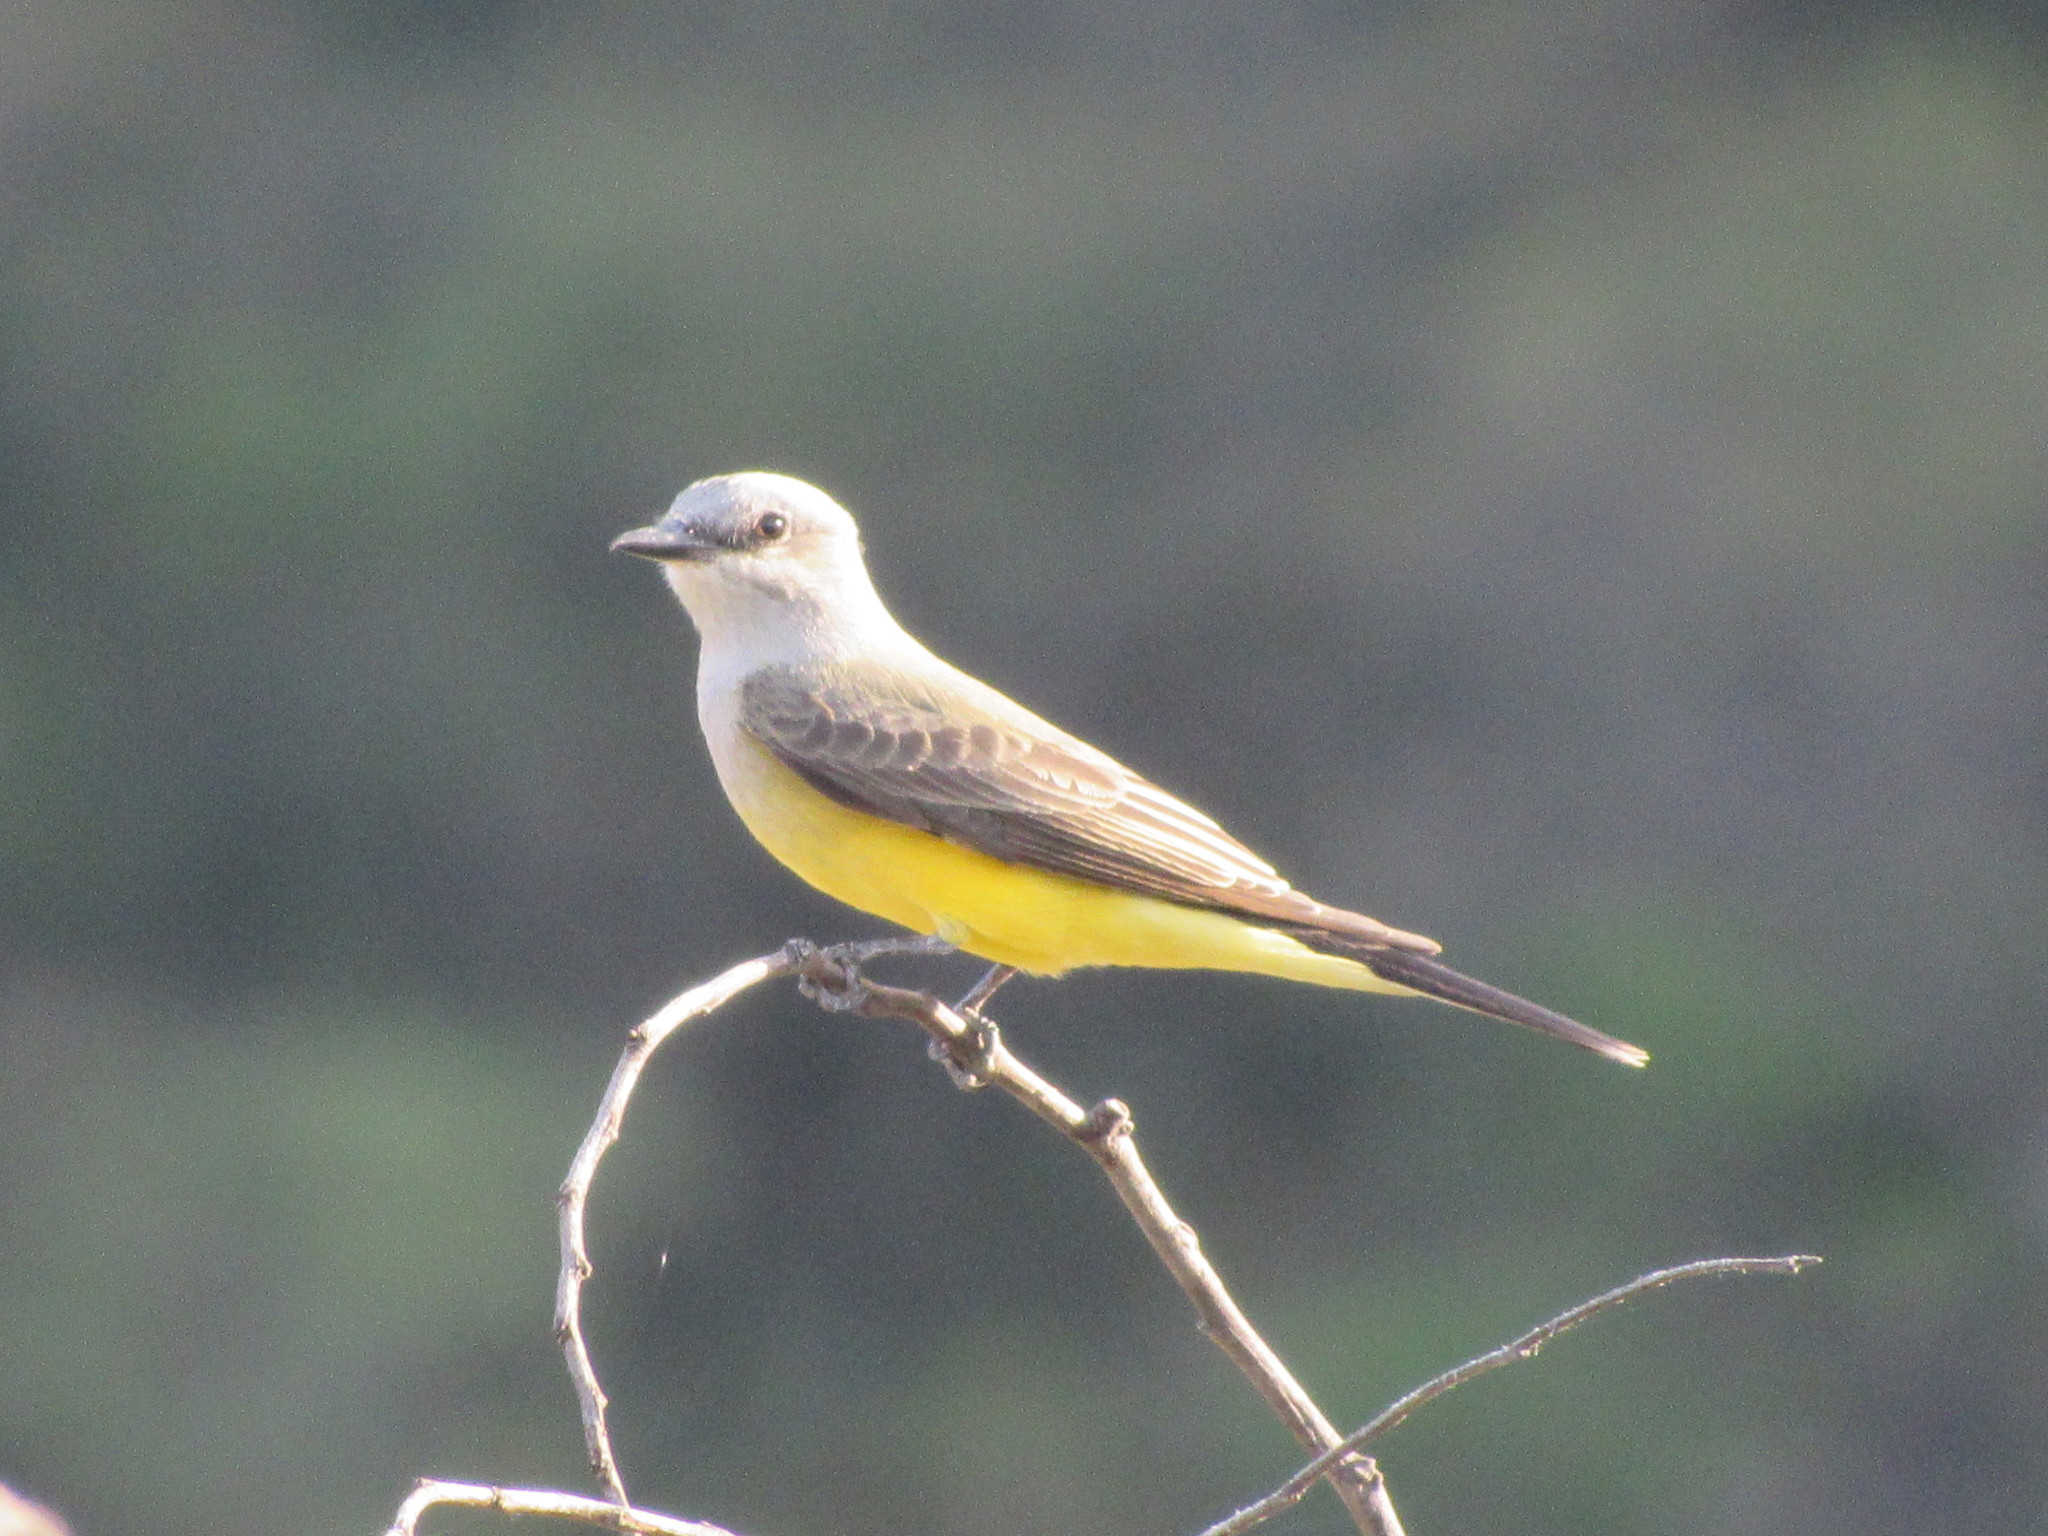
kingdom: Animalia
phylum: Chordata
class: Aves
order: Passeriformes
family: Tyrannidae
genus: Tyrannus
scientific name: Tyrannus verticalis
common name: Western kingbird
